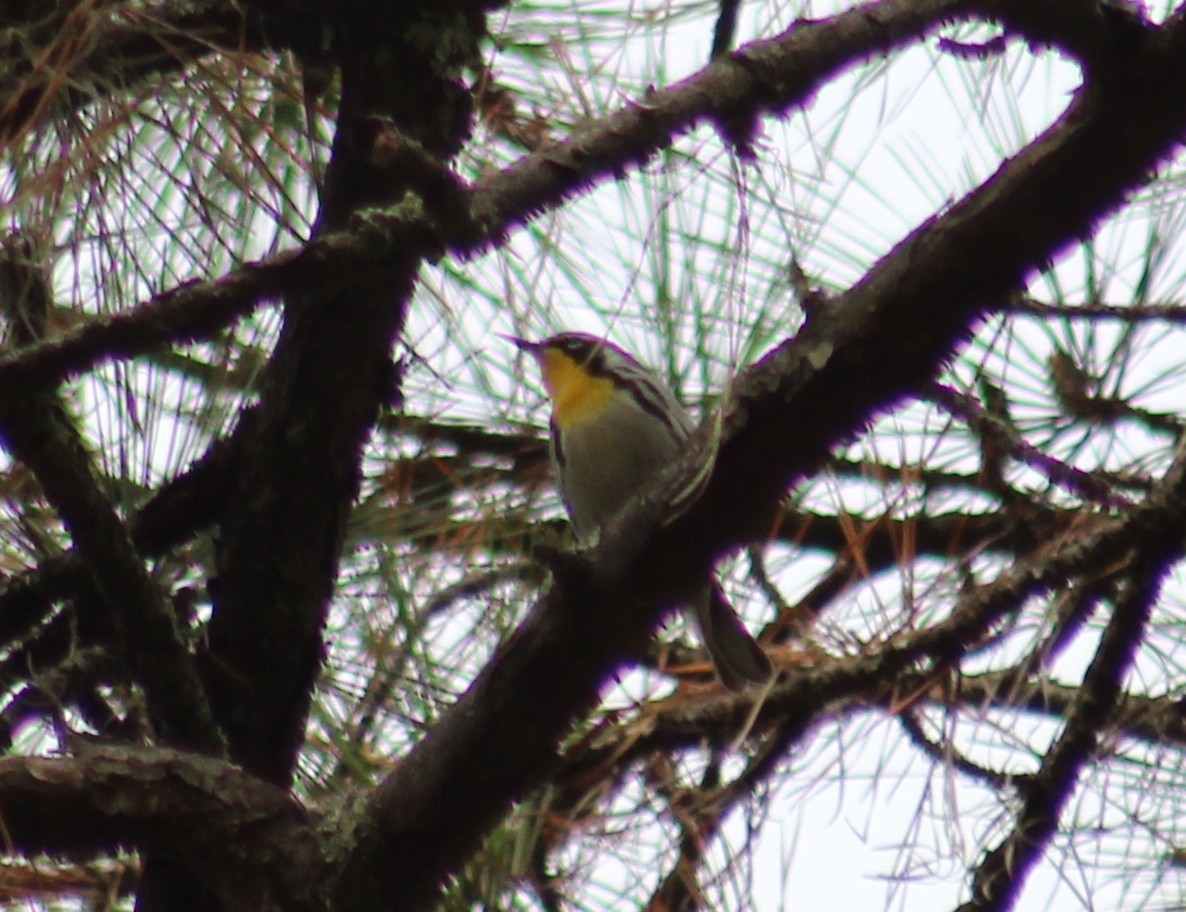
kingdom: Animalia
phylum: Chordata
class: Aves
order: Passeriformes
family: Parulidae
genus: Setophaga
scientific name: Setophaga dominica
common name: Yellow-throated warbler
